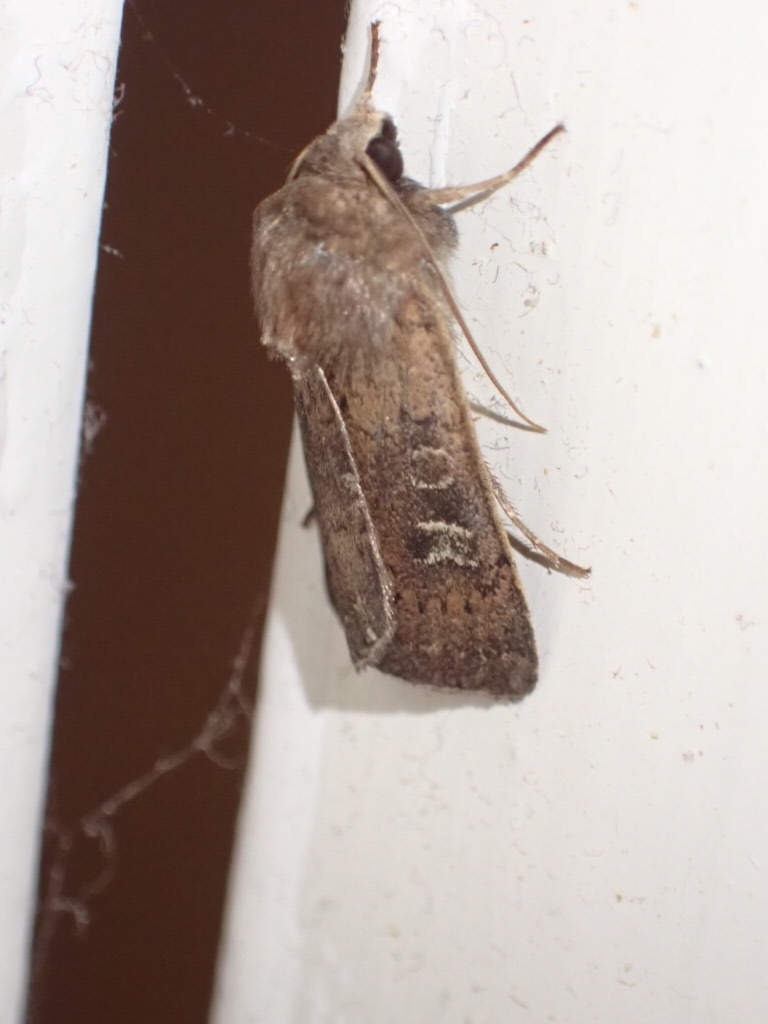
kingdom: Animalia
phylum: Arthropoda
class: Insecta
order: Lepidoptera
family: Noctuidae
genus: Xestia
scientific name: Xestia xanthographa
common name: Square-spot rustic
